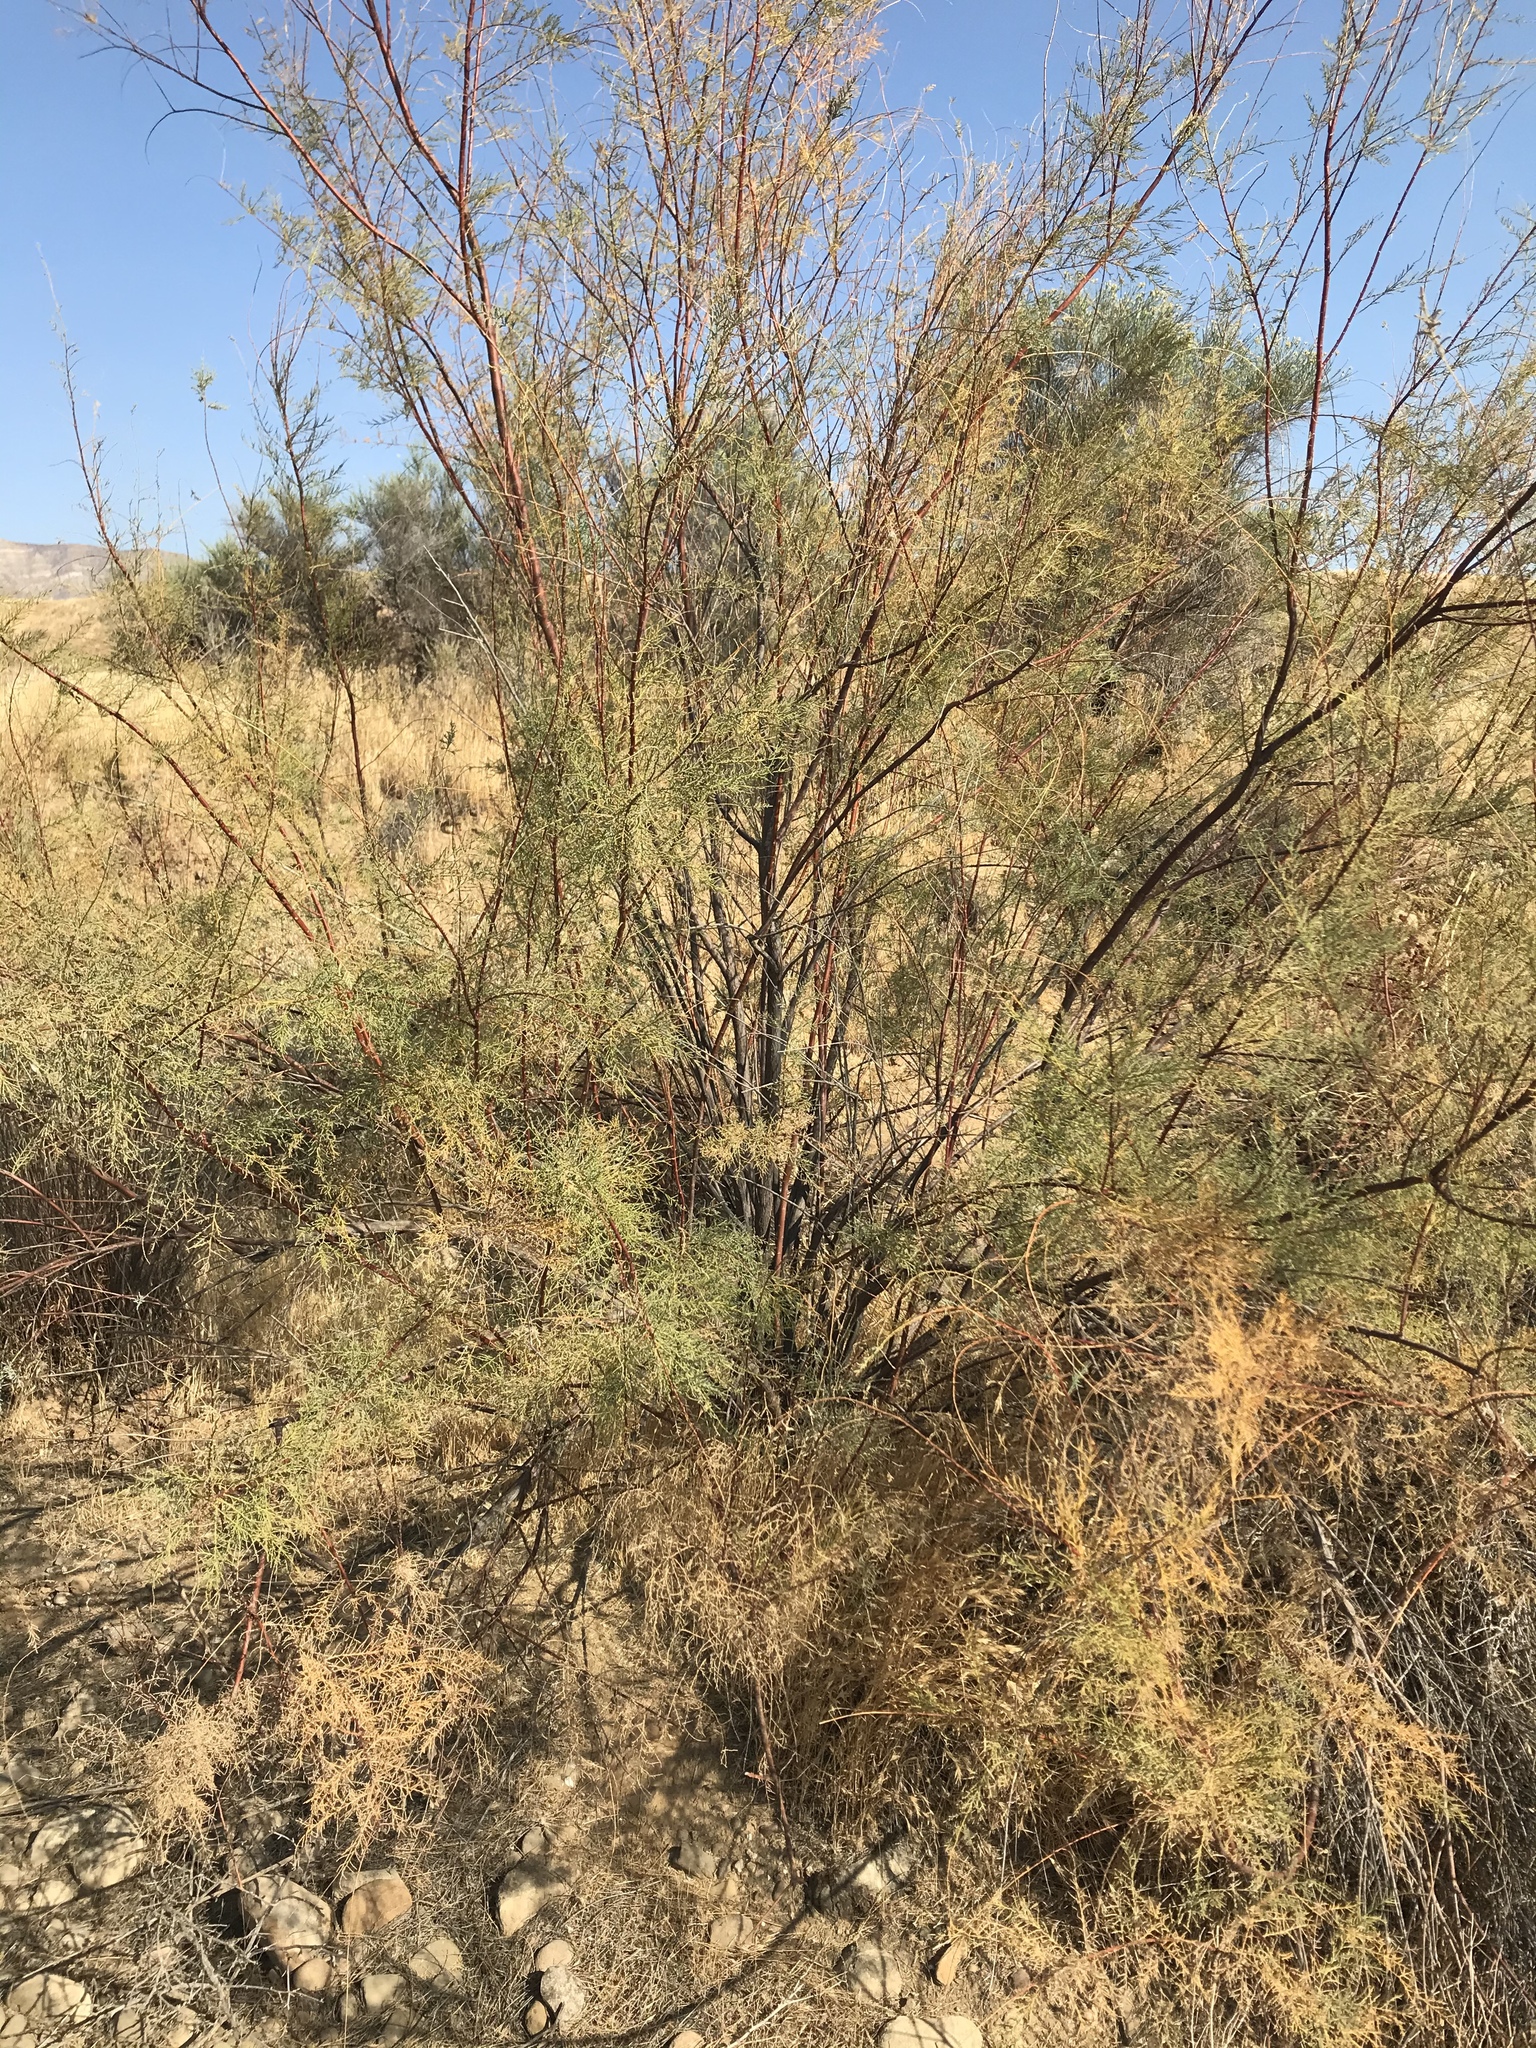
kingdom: Plantae
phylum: Tracheophyta
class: Magnoliopsida
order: Caryophyllales
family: Tamaricaceae
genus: Tamarix
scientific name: Tamarix ramosissima
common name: Pink tamarisk
